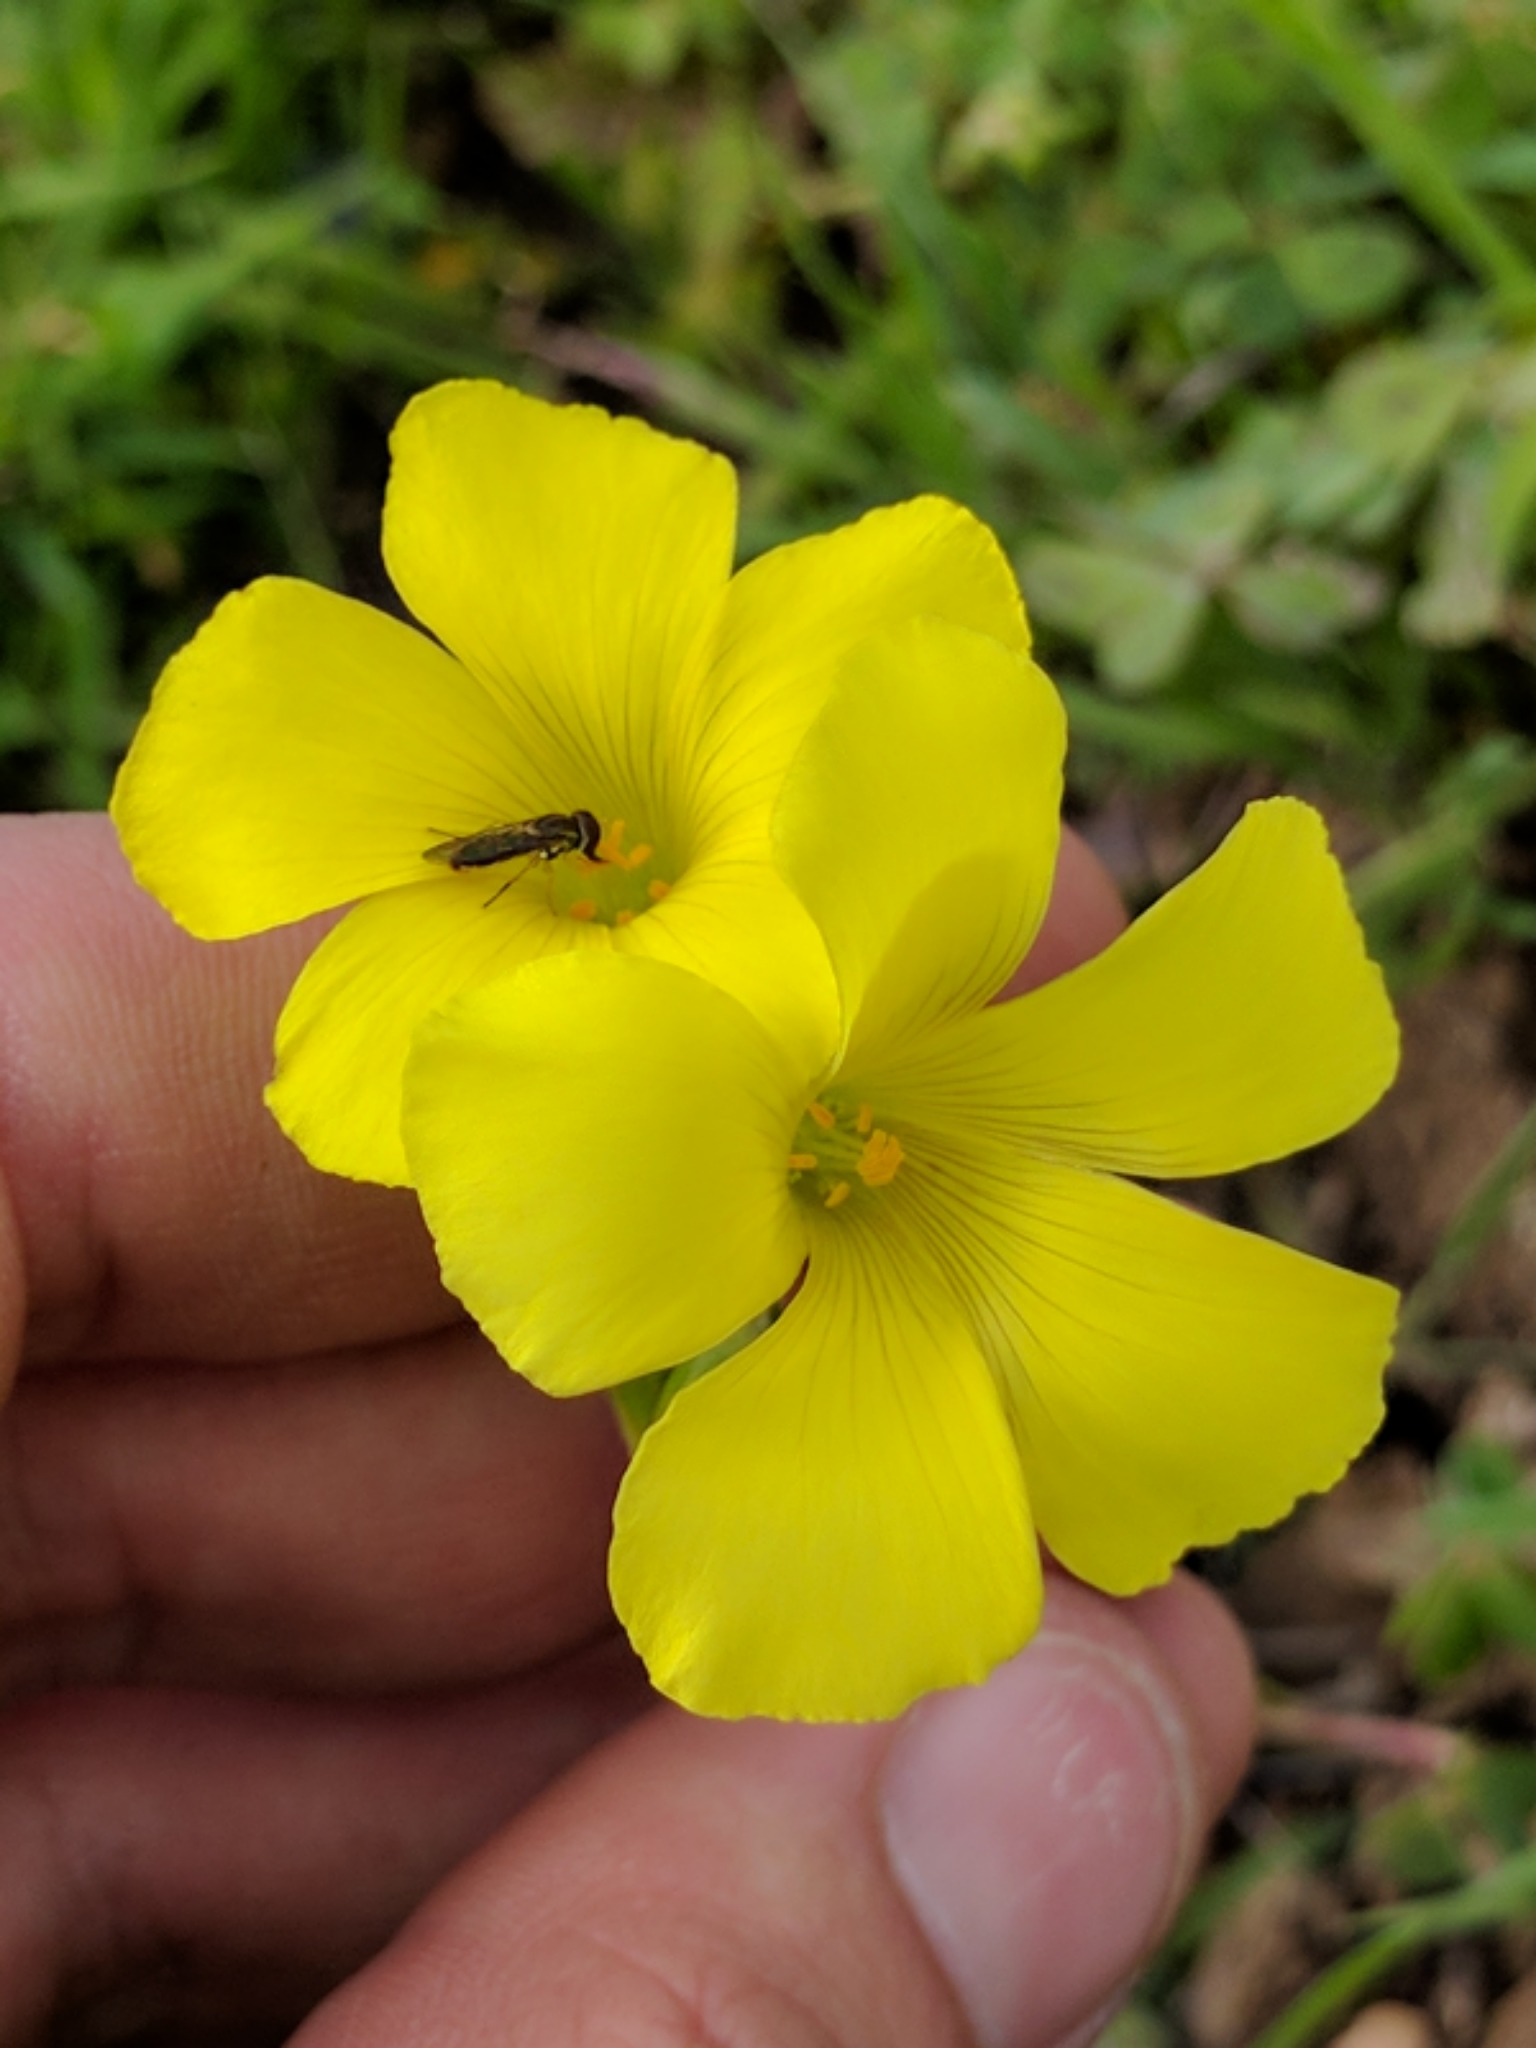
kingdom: Plantae
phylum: Tracheophyta
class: Magnoliopsida
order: Oxalidales
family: Oxalidaceae
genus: Oxalis
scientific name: Oxalis pes-caprae
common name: Bermuda-buttercup
